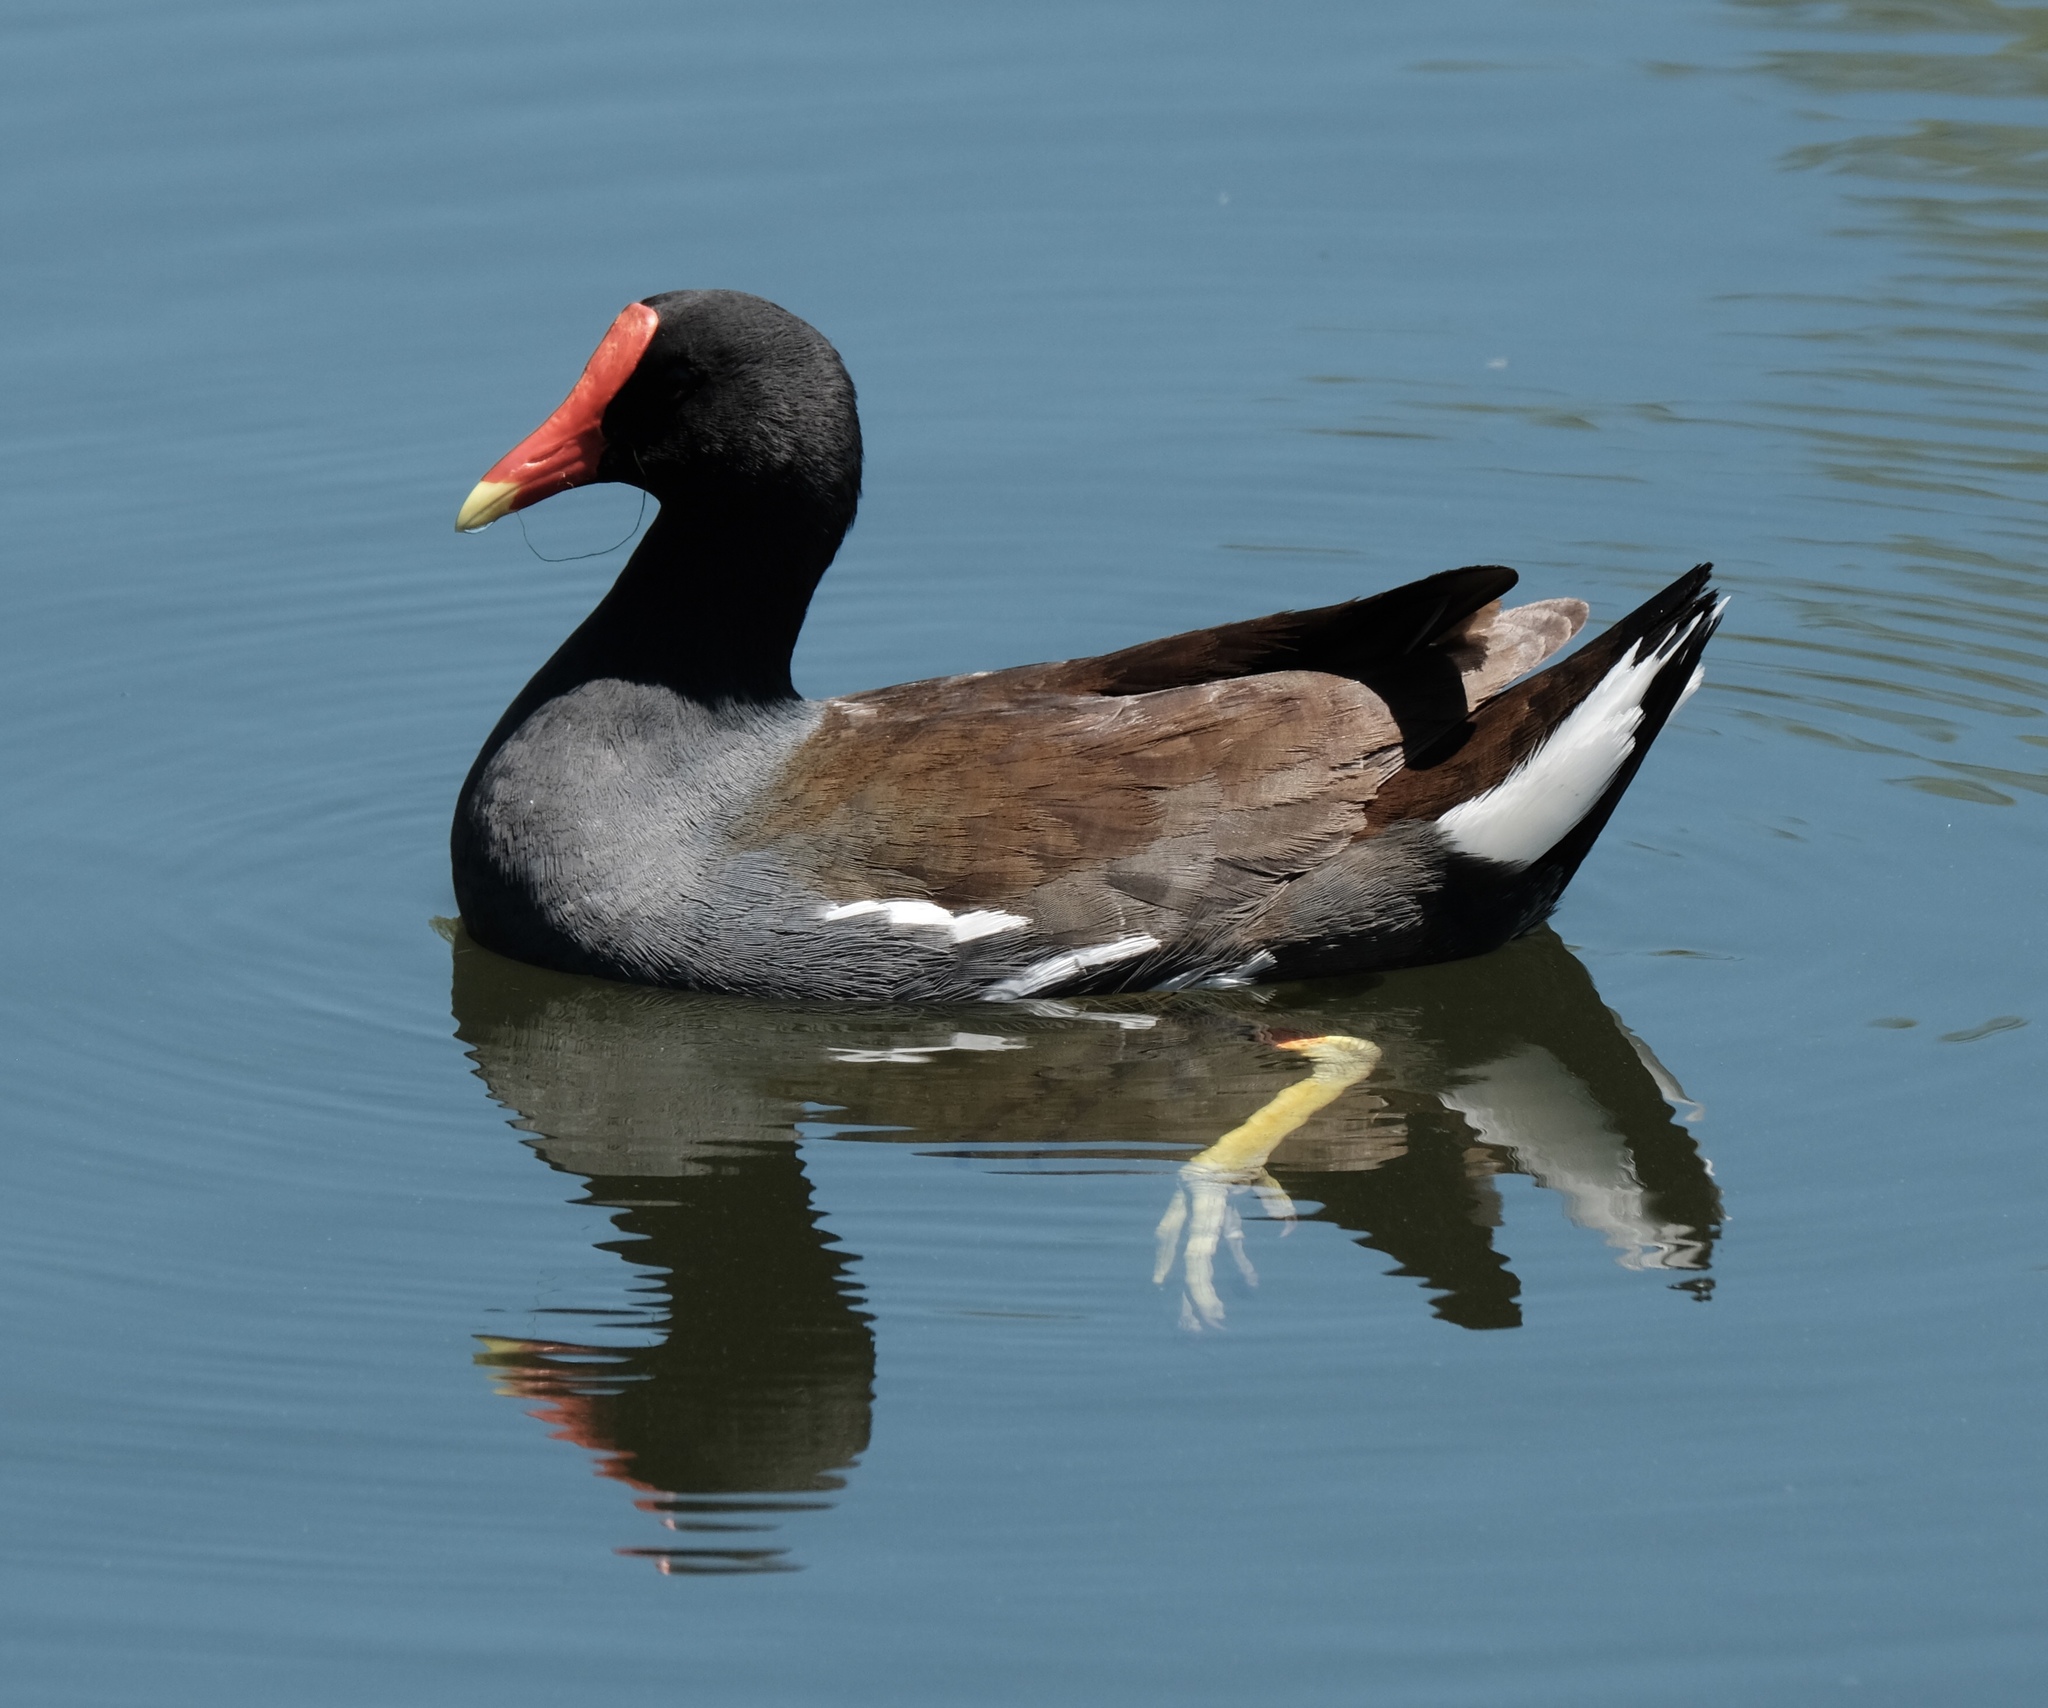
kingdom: Animalia
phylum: Chordata
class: Aves
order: Gruiformes
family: Rallidae
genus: Gallinula
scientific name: Gallinula chloropus
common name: Common moorhen
